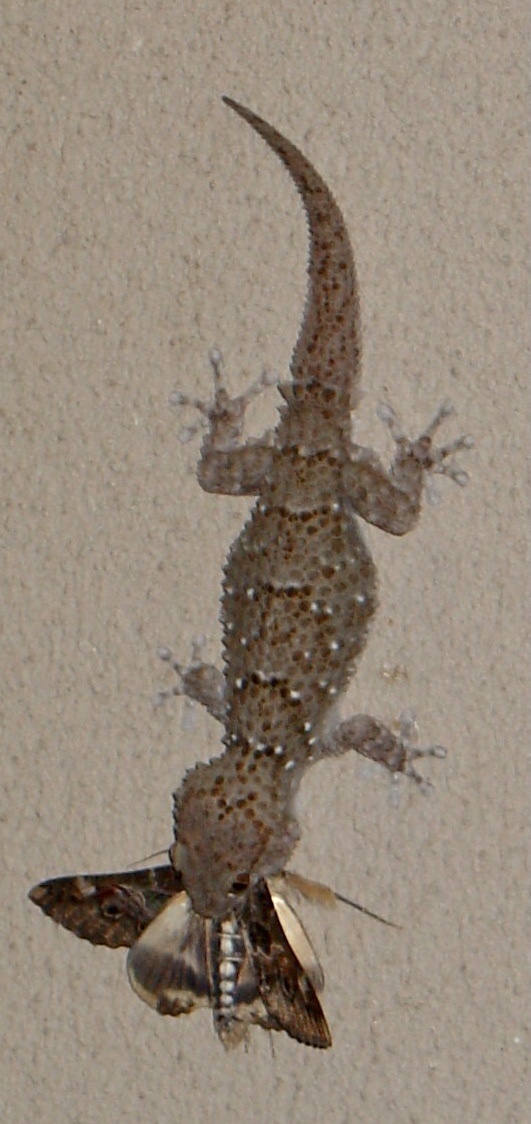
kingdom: Animalia
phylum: Chordata
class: Squamata
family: Gekkonidae
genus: Chondrodactylus
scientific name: Chondrodactylus bibronii
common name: Bibron's gecko
